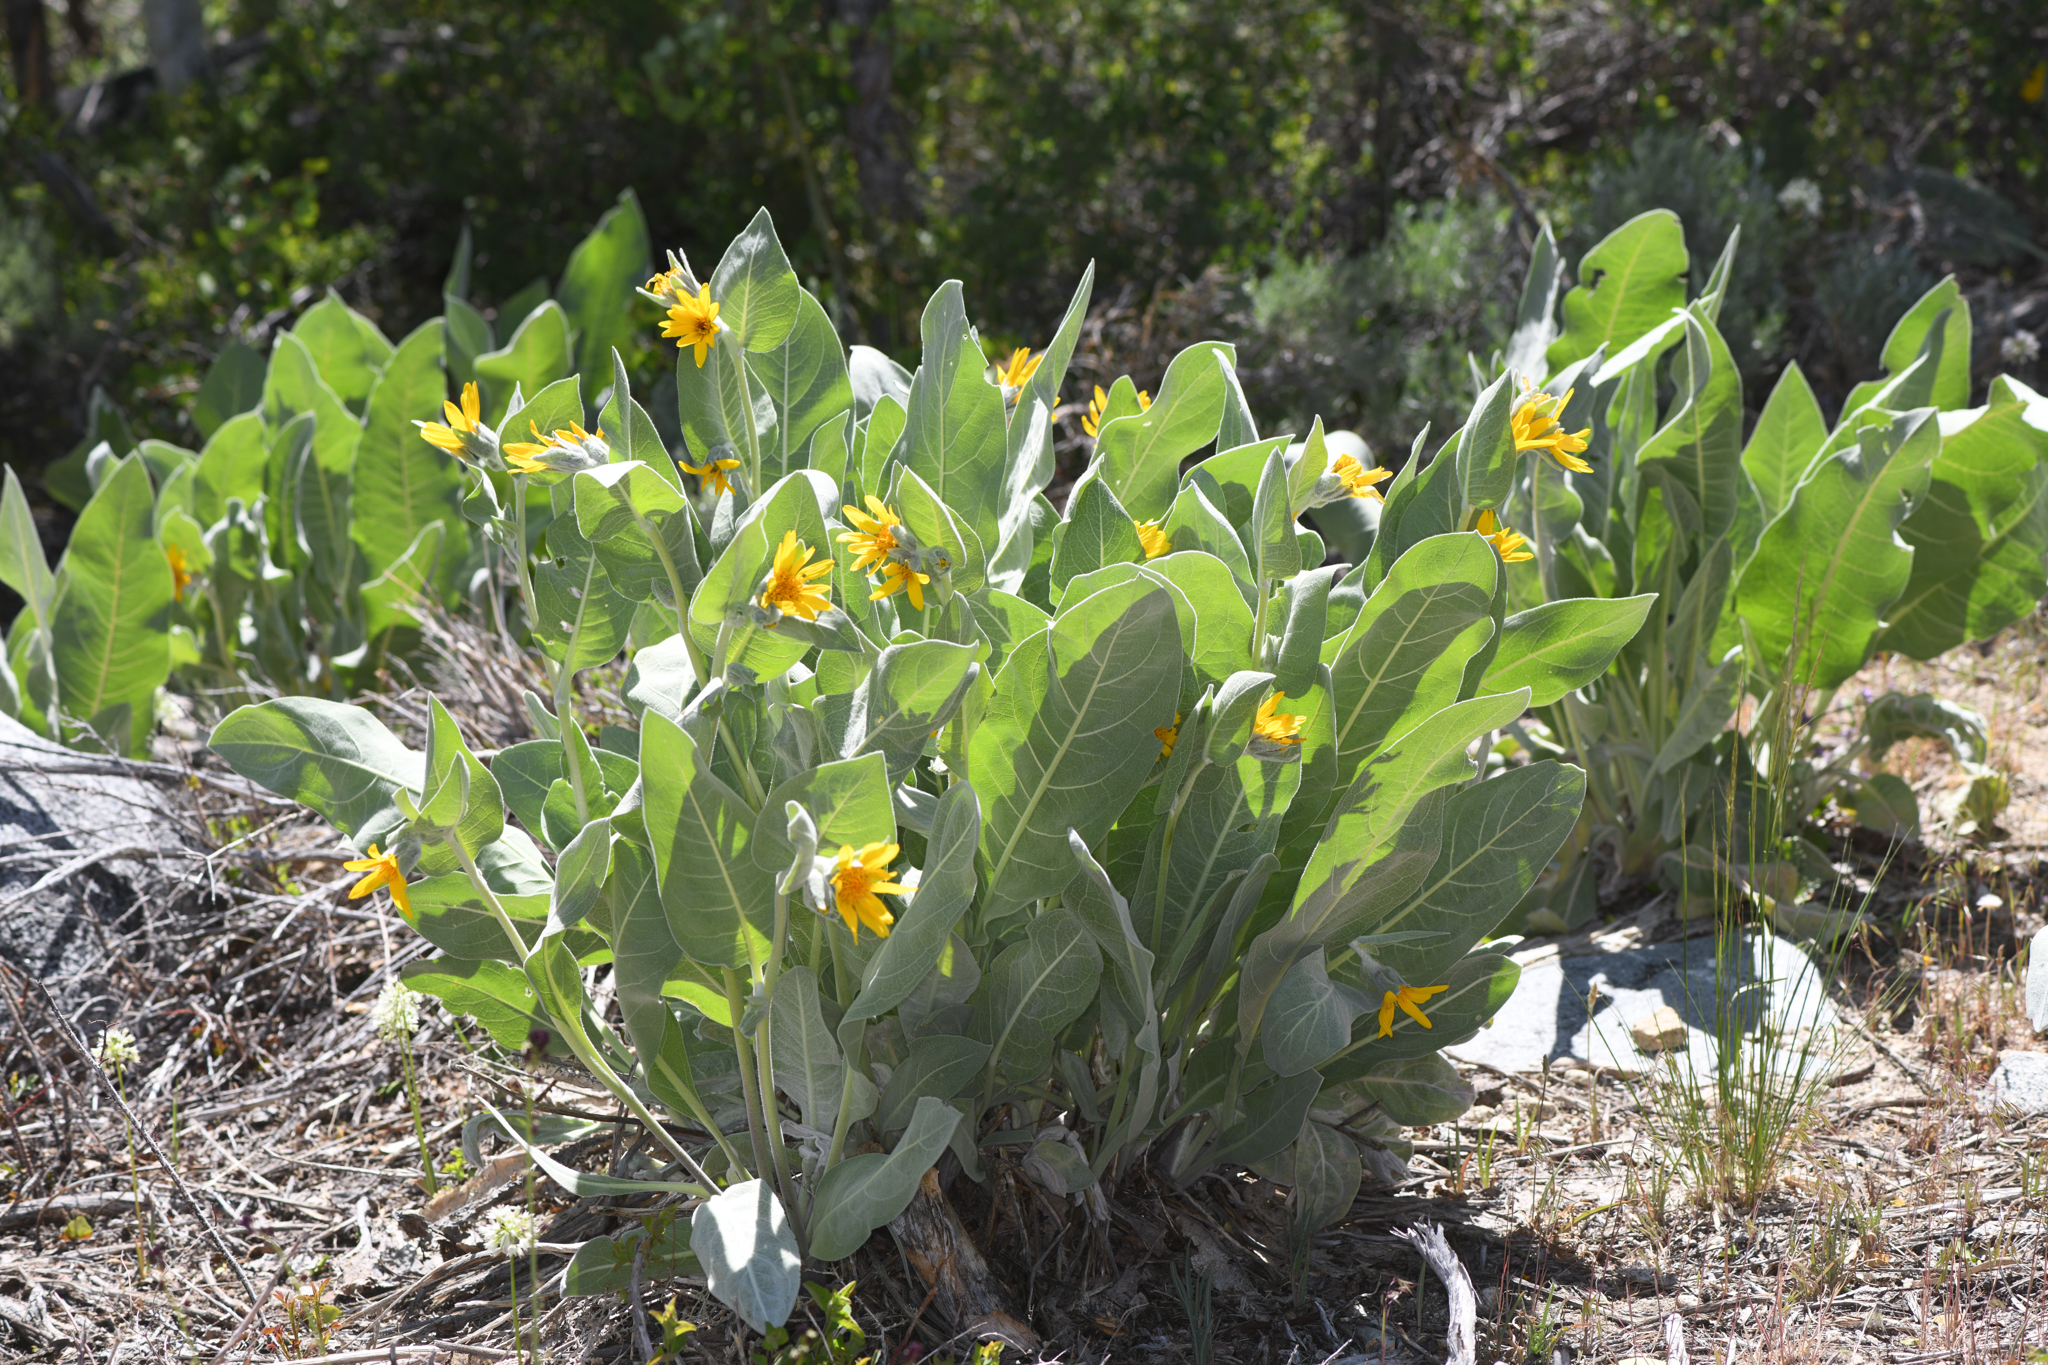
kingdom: Plantae
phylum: Tracheophyta
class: Magnoliopsida
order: Asterales
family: Asteraceae
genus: Wyethia
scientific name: Wyethia mollis
